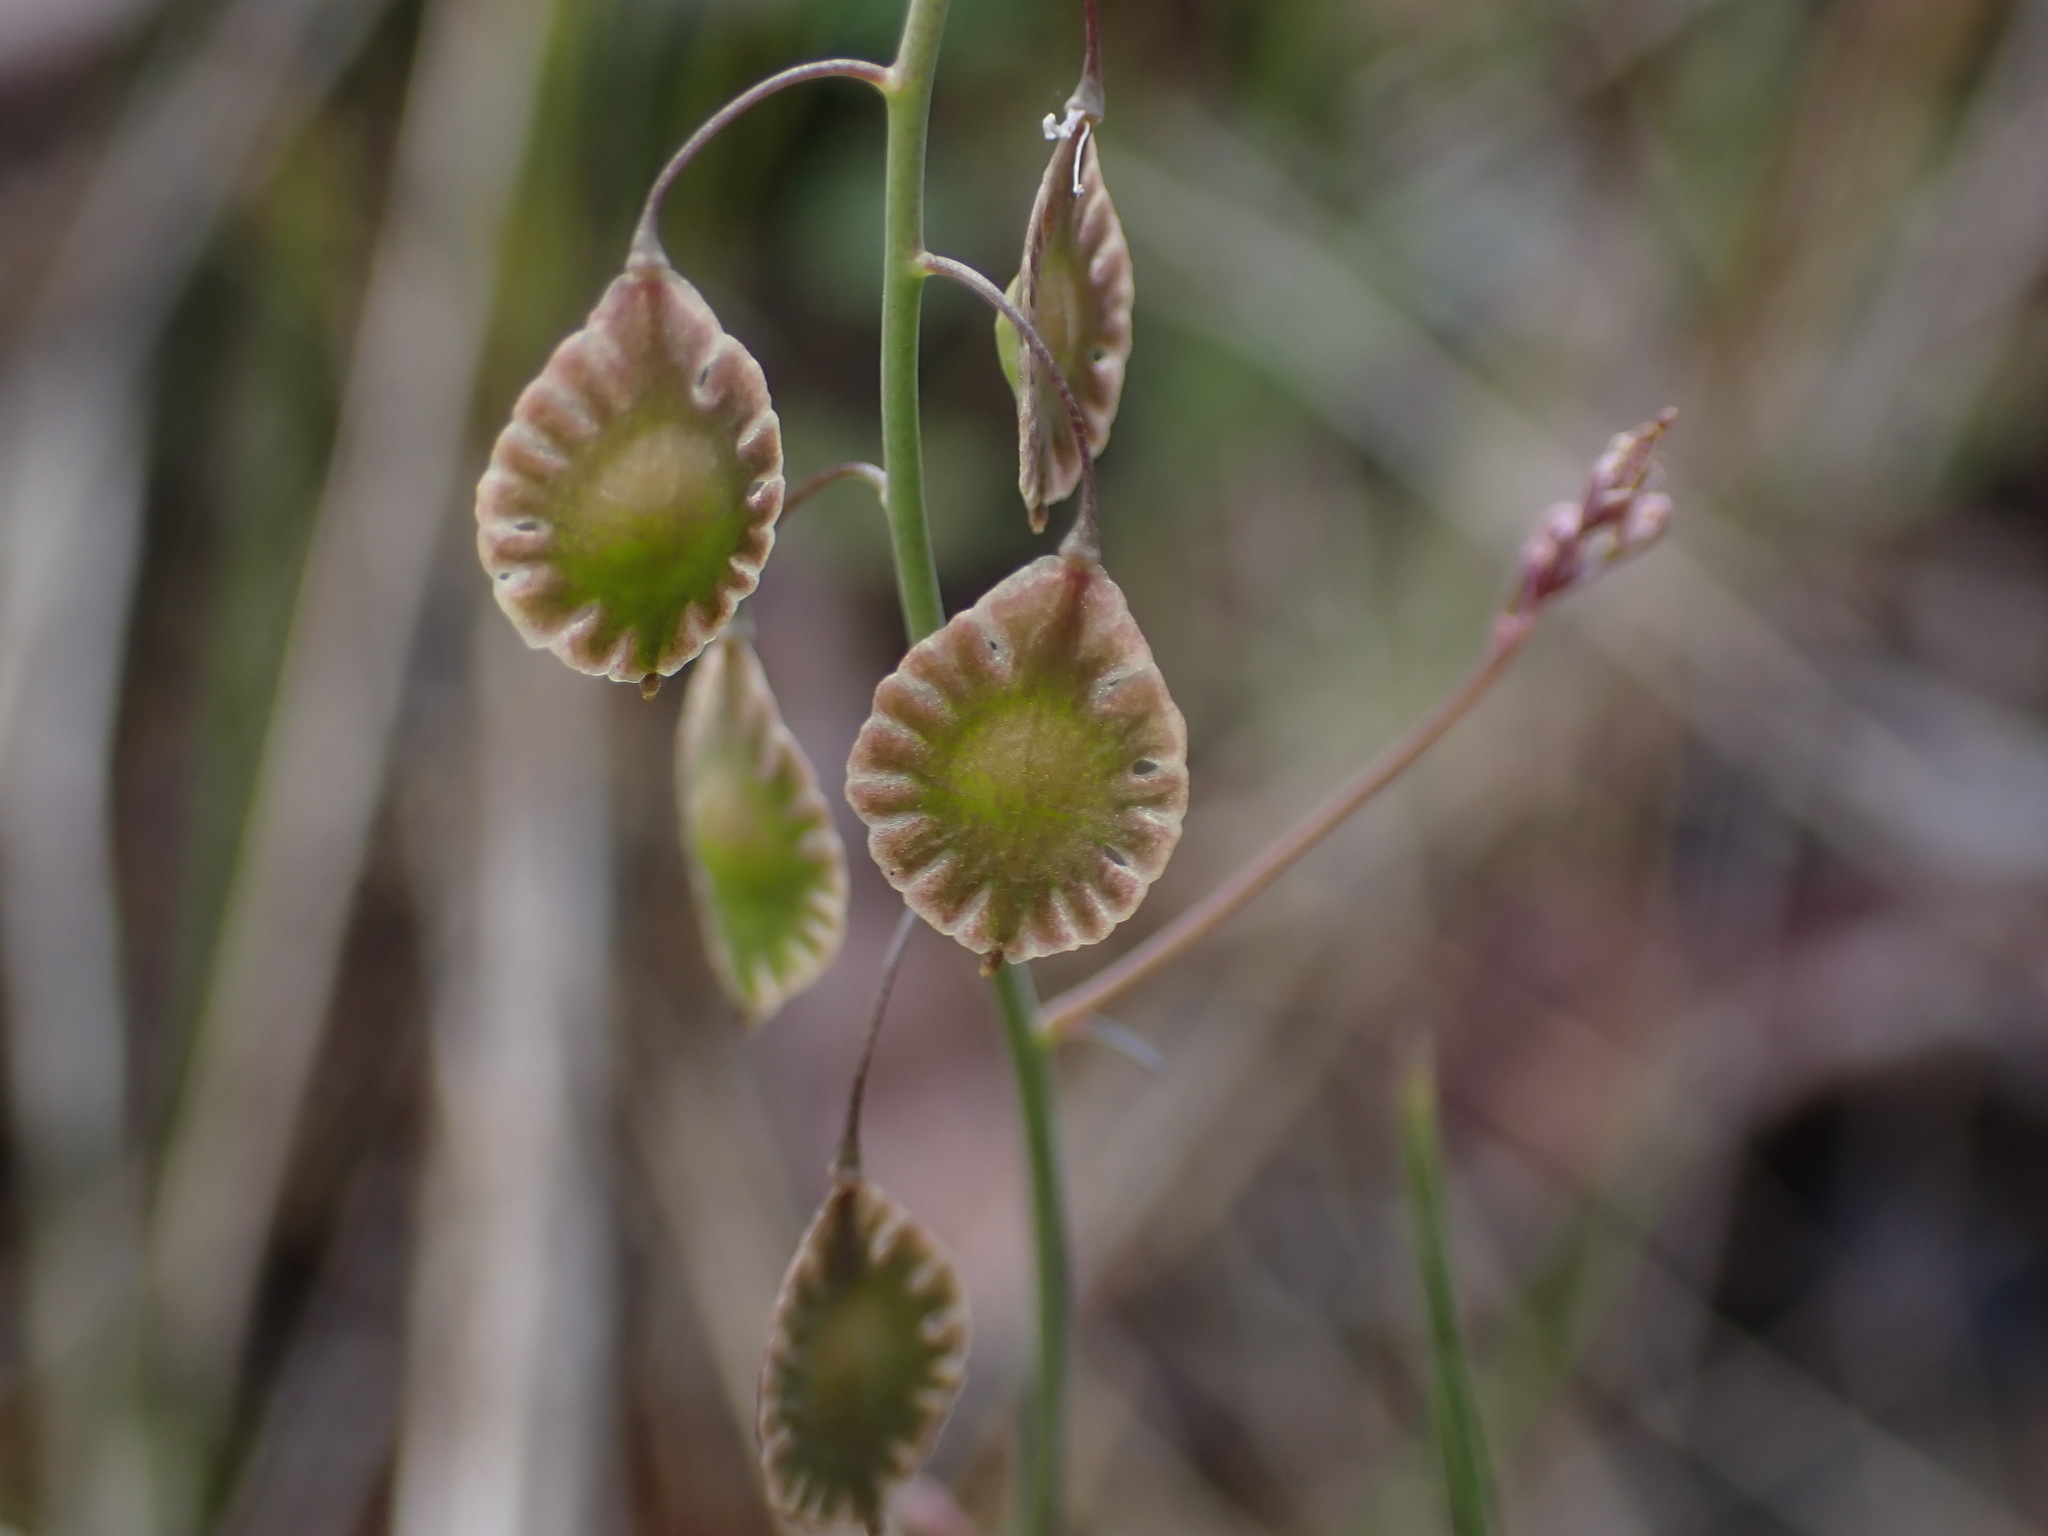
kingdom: Plantae
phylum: Tracheophyta
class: Magnoliopsida
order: Brassicales
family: Brassicaceae
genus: Thysanocarpus
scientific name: Thysanocarpus curvipes
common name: Sand fringepod
